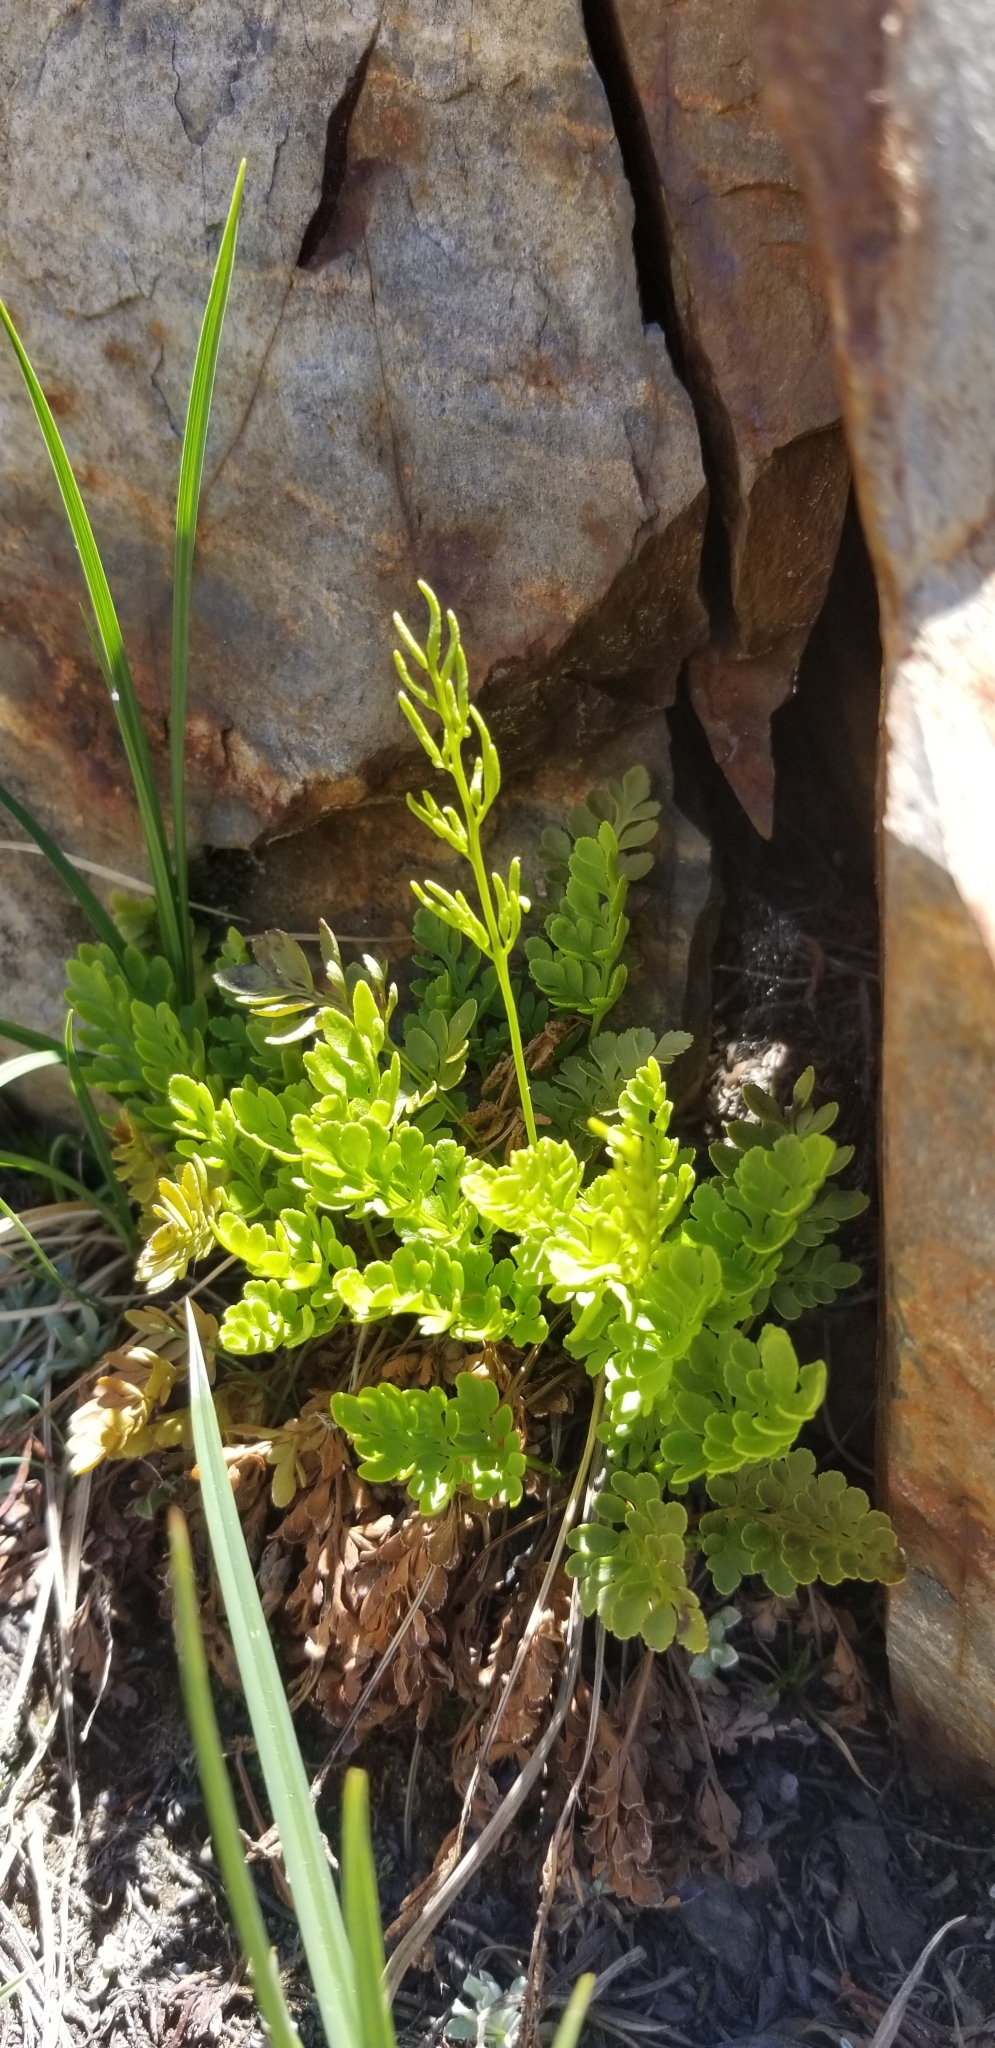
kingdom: Plantae
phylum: Tracheophyta
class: Polypodiopsida
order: Polypodiales
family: Pteridaceae
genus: Cryptogramma
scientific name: Cryptogramma acrostichoides
